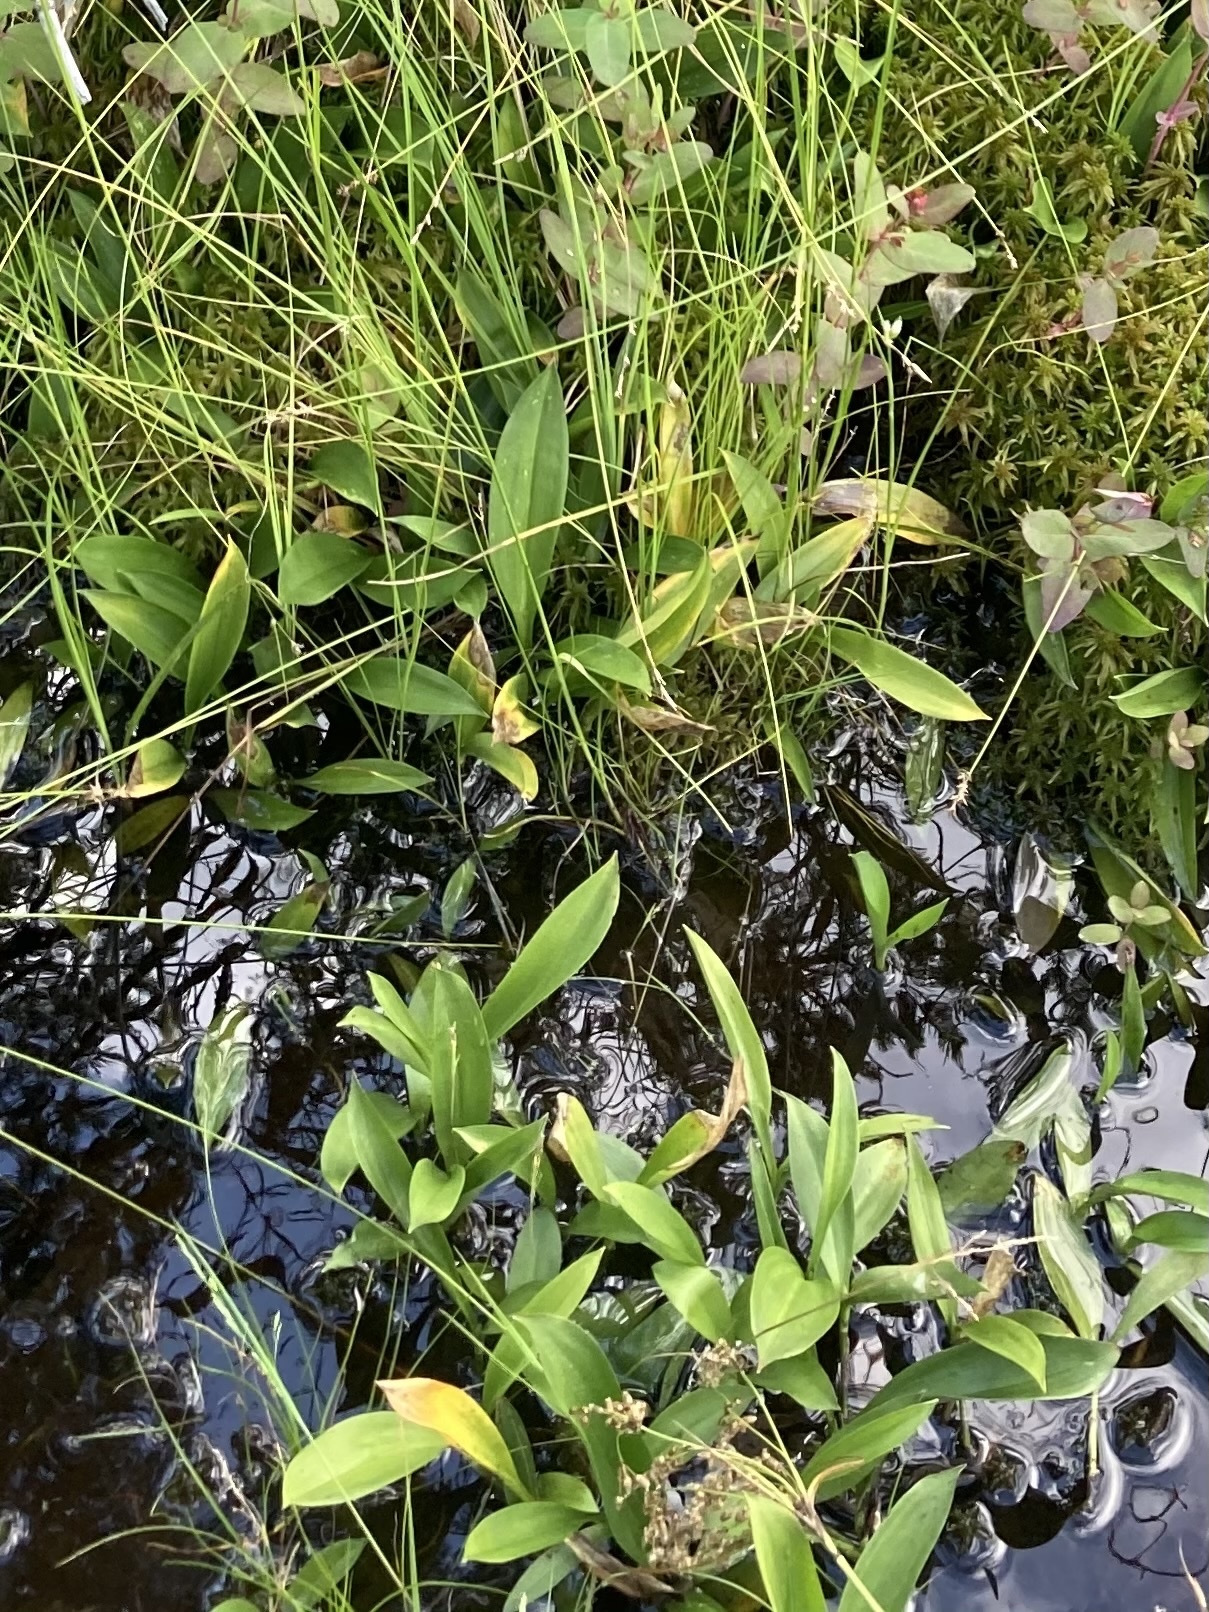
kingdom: Plantae
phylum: Tracheophyta
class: Liliopsida
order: Asparagales
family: Asparagaceae
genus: Maianthemum
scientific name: Maianthemum trifolium
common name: Swamp false solomon's seal
